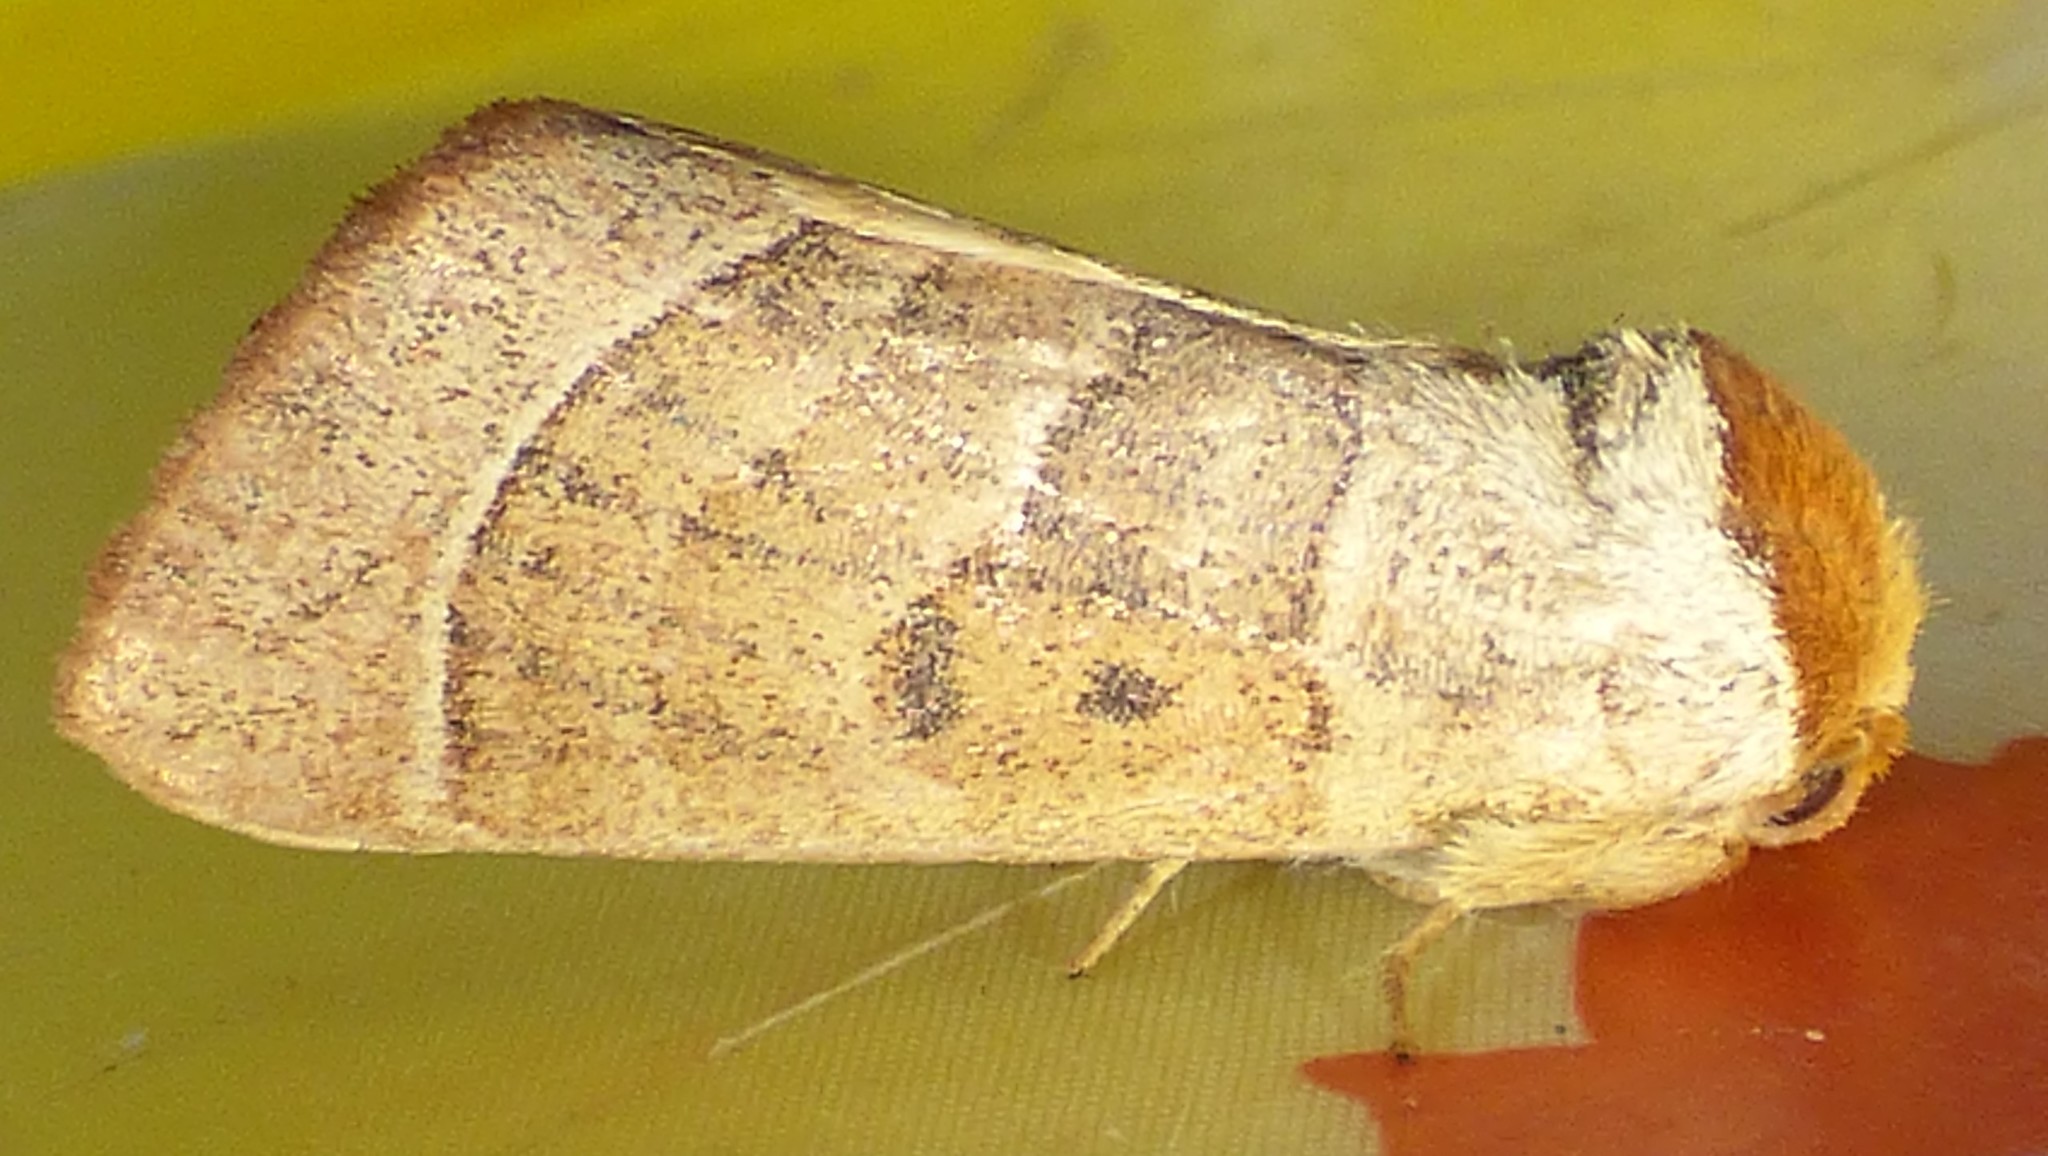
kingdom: Animalia
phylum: Arthropoda
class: Insecta
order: Lepidoptera
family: Notodontidae
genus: Datana
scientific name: Datana contracta
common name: Contracted datana
